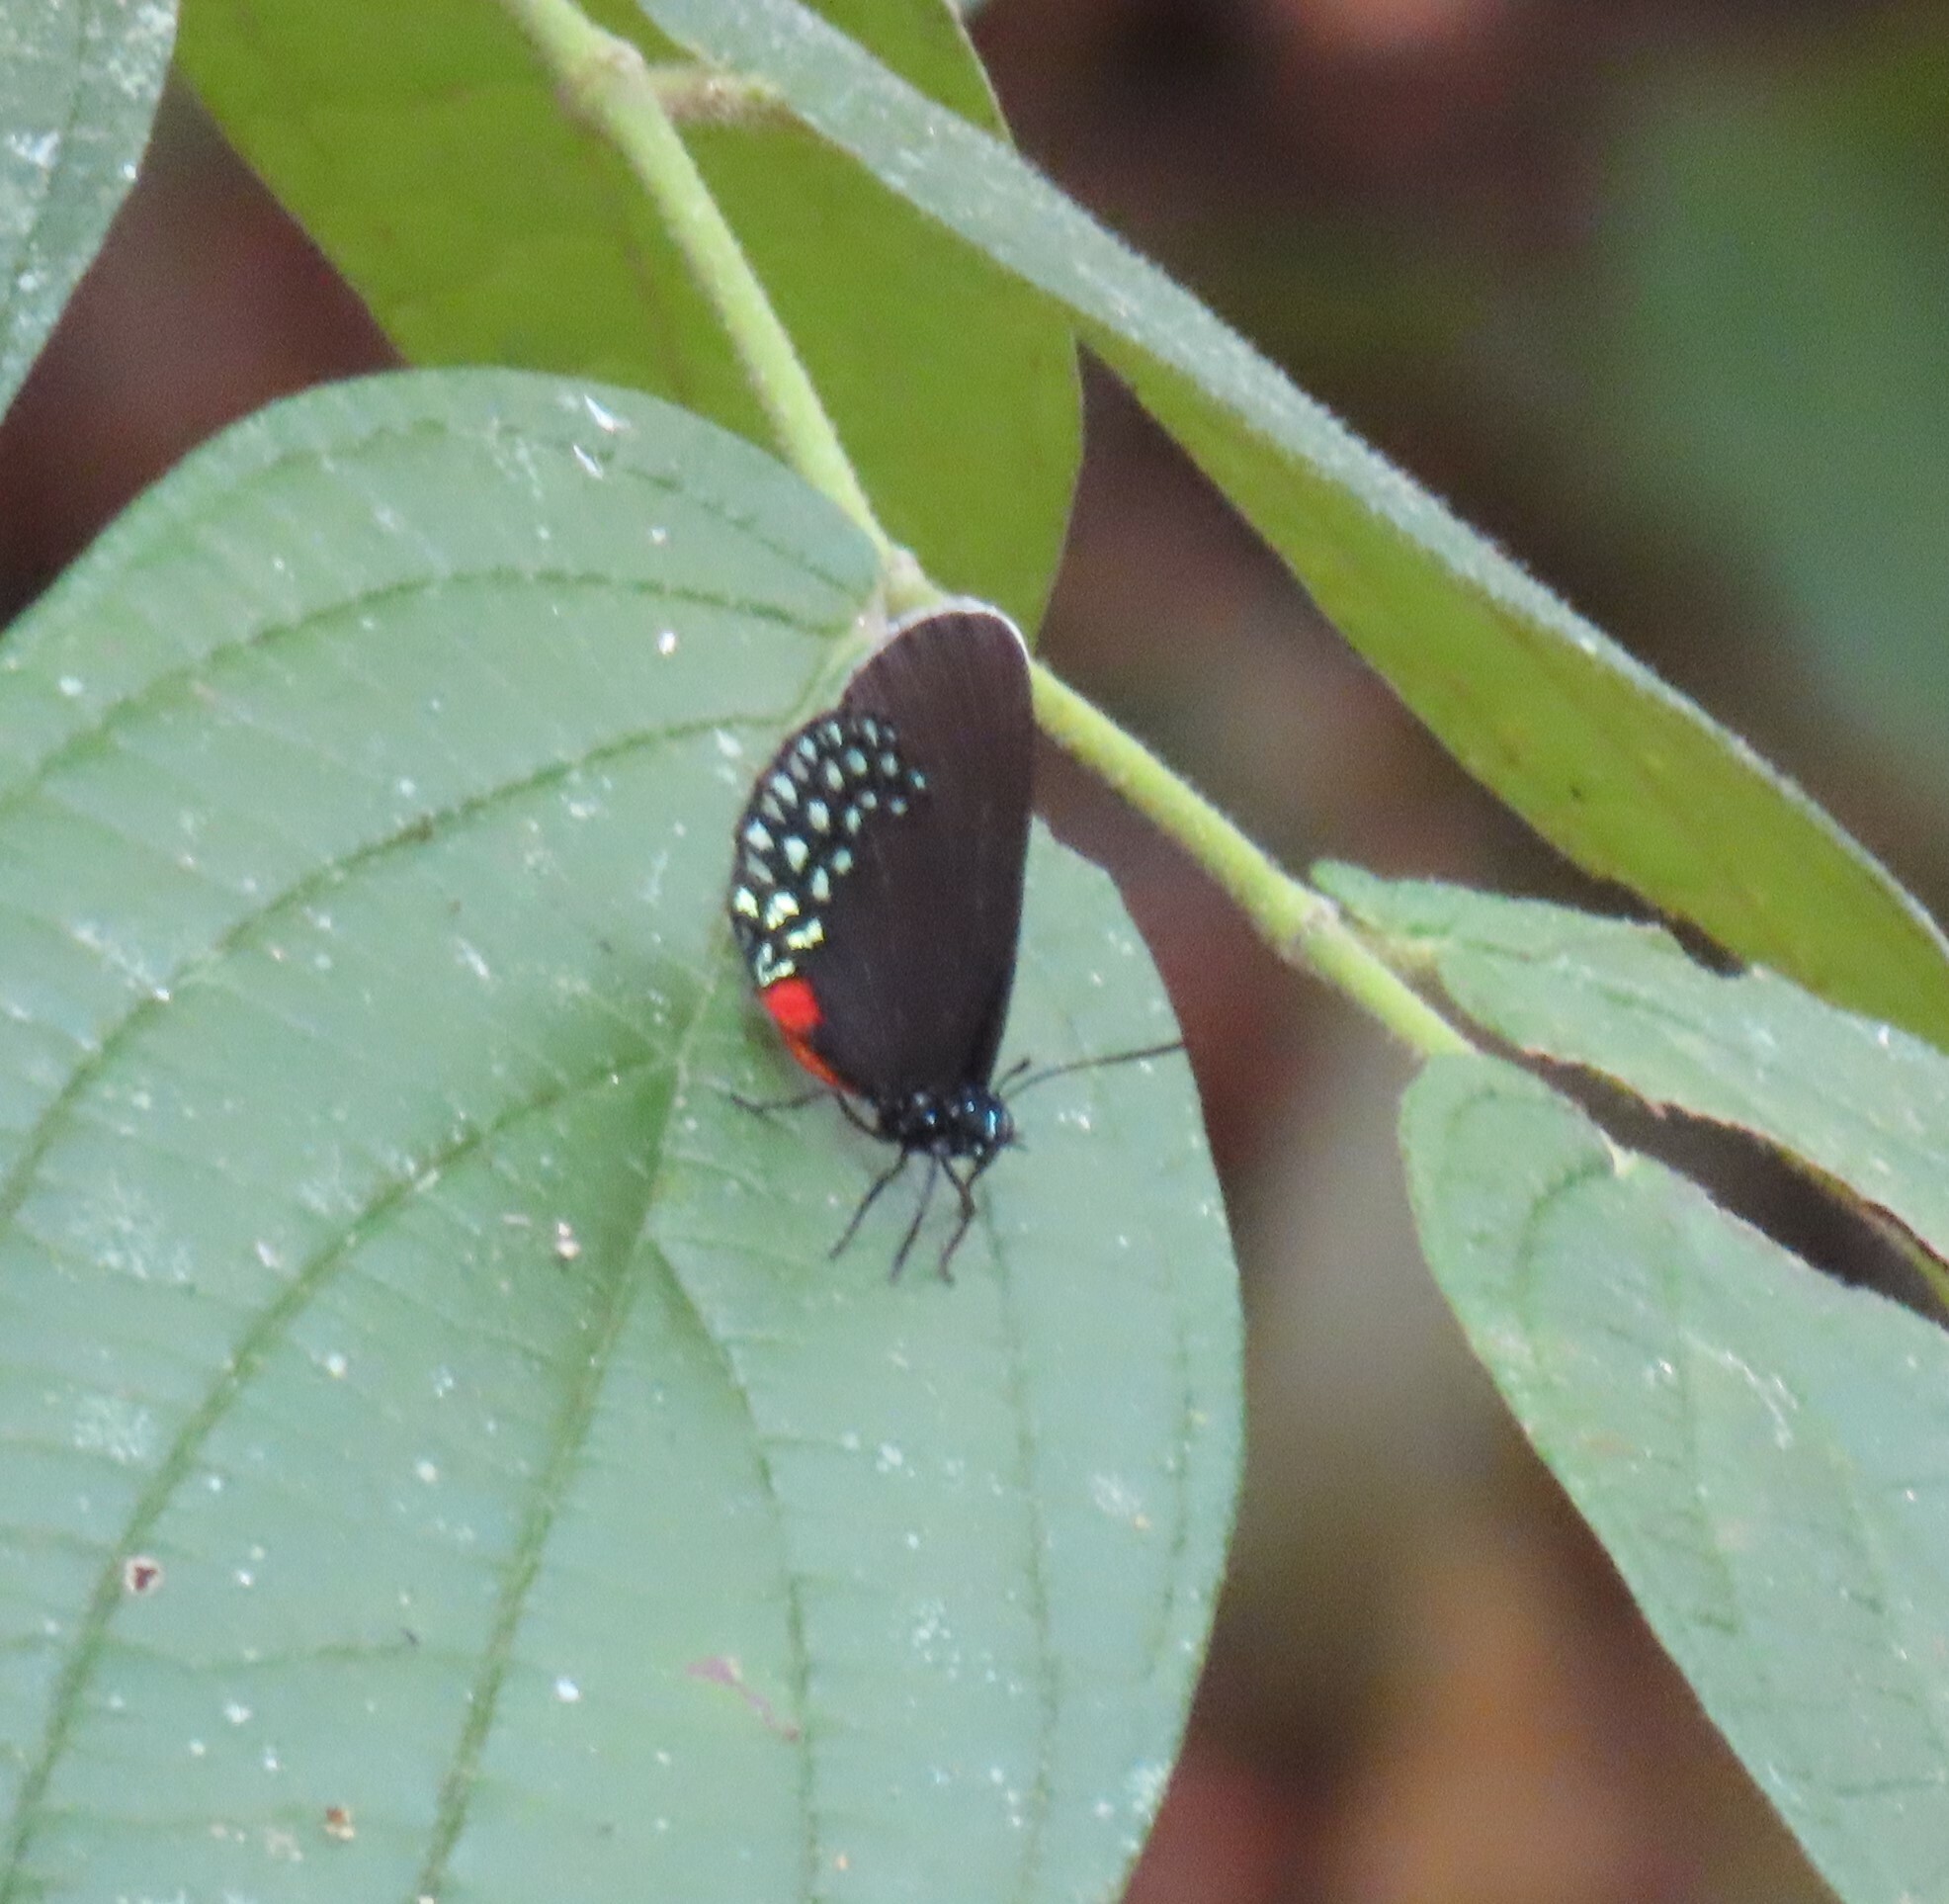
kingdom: Animalia
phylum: Arthropoda
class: Insecta
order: Lepidoptera
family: Lycaenidae
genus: Eumaeus
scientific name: Eumaeus toxea
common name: Mexican cycadian
